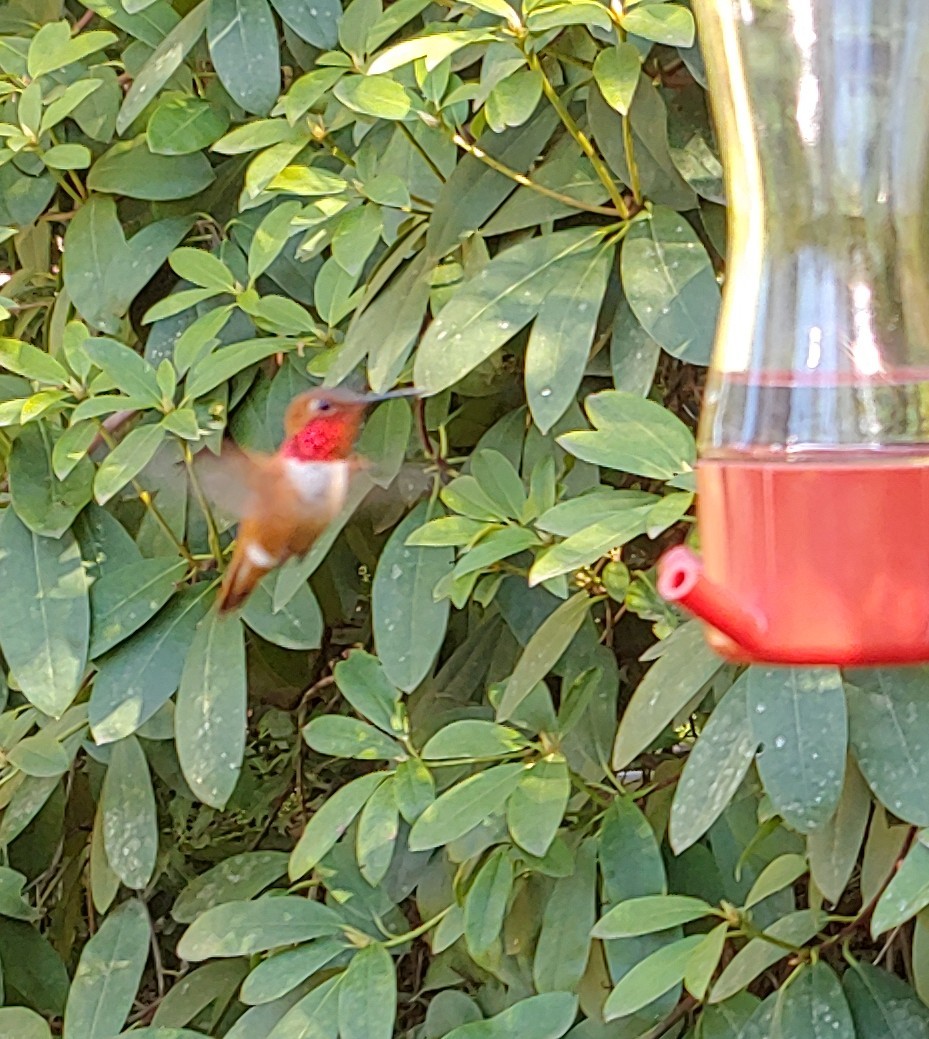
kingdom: Animalia
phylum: Chordata
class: Aves
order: Apodiformes
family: Trochilidae
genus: Selasphorus
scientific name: Selasphorus rufus
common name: Rufous hummingbird
